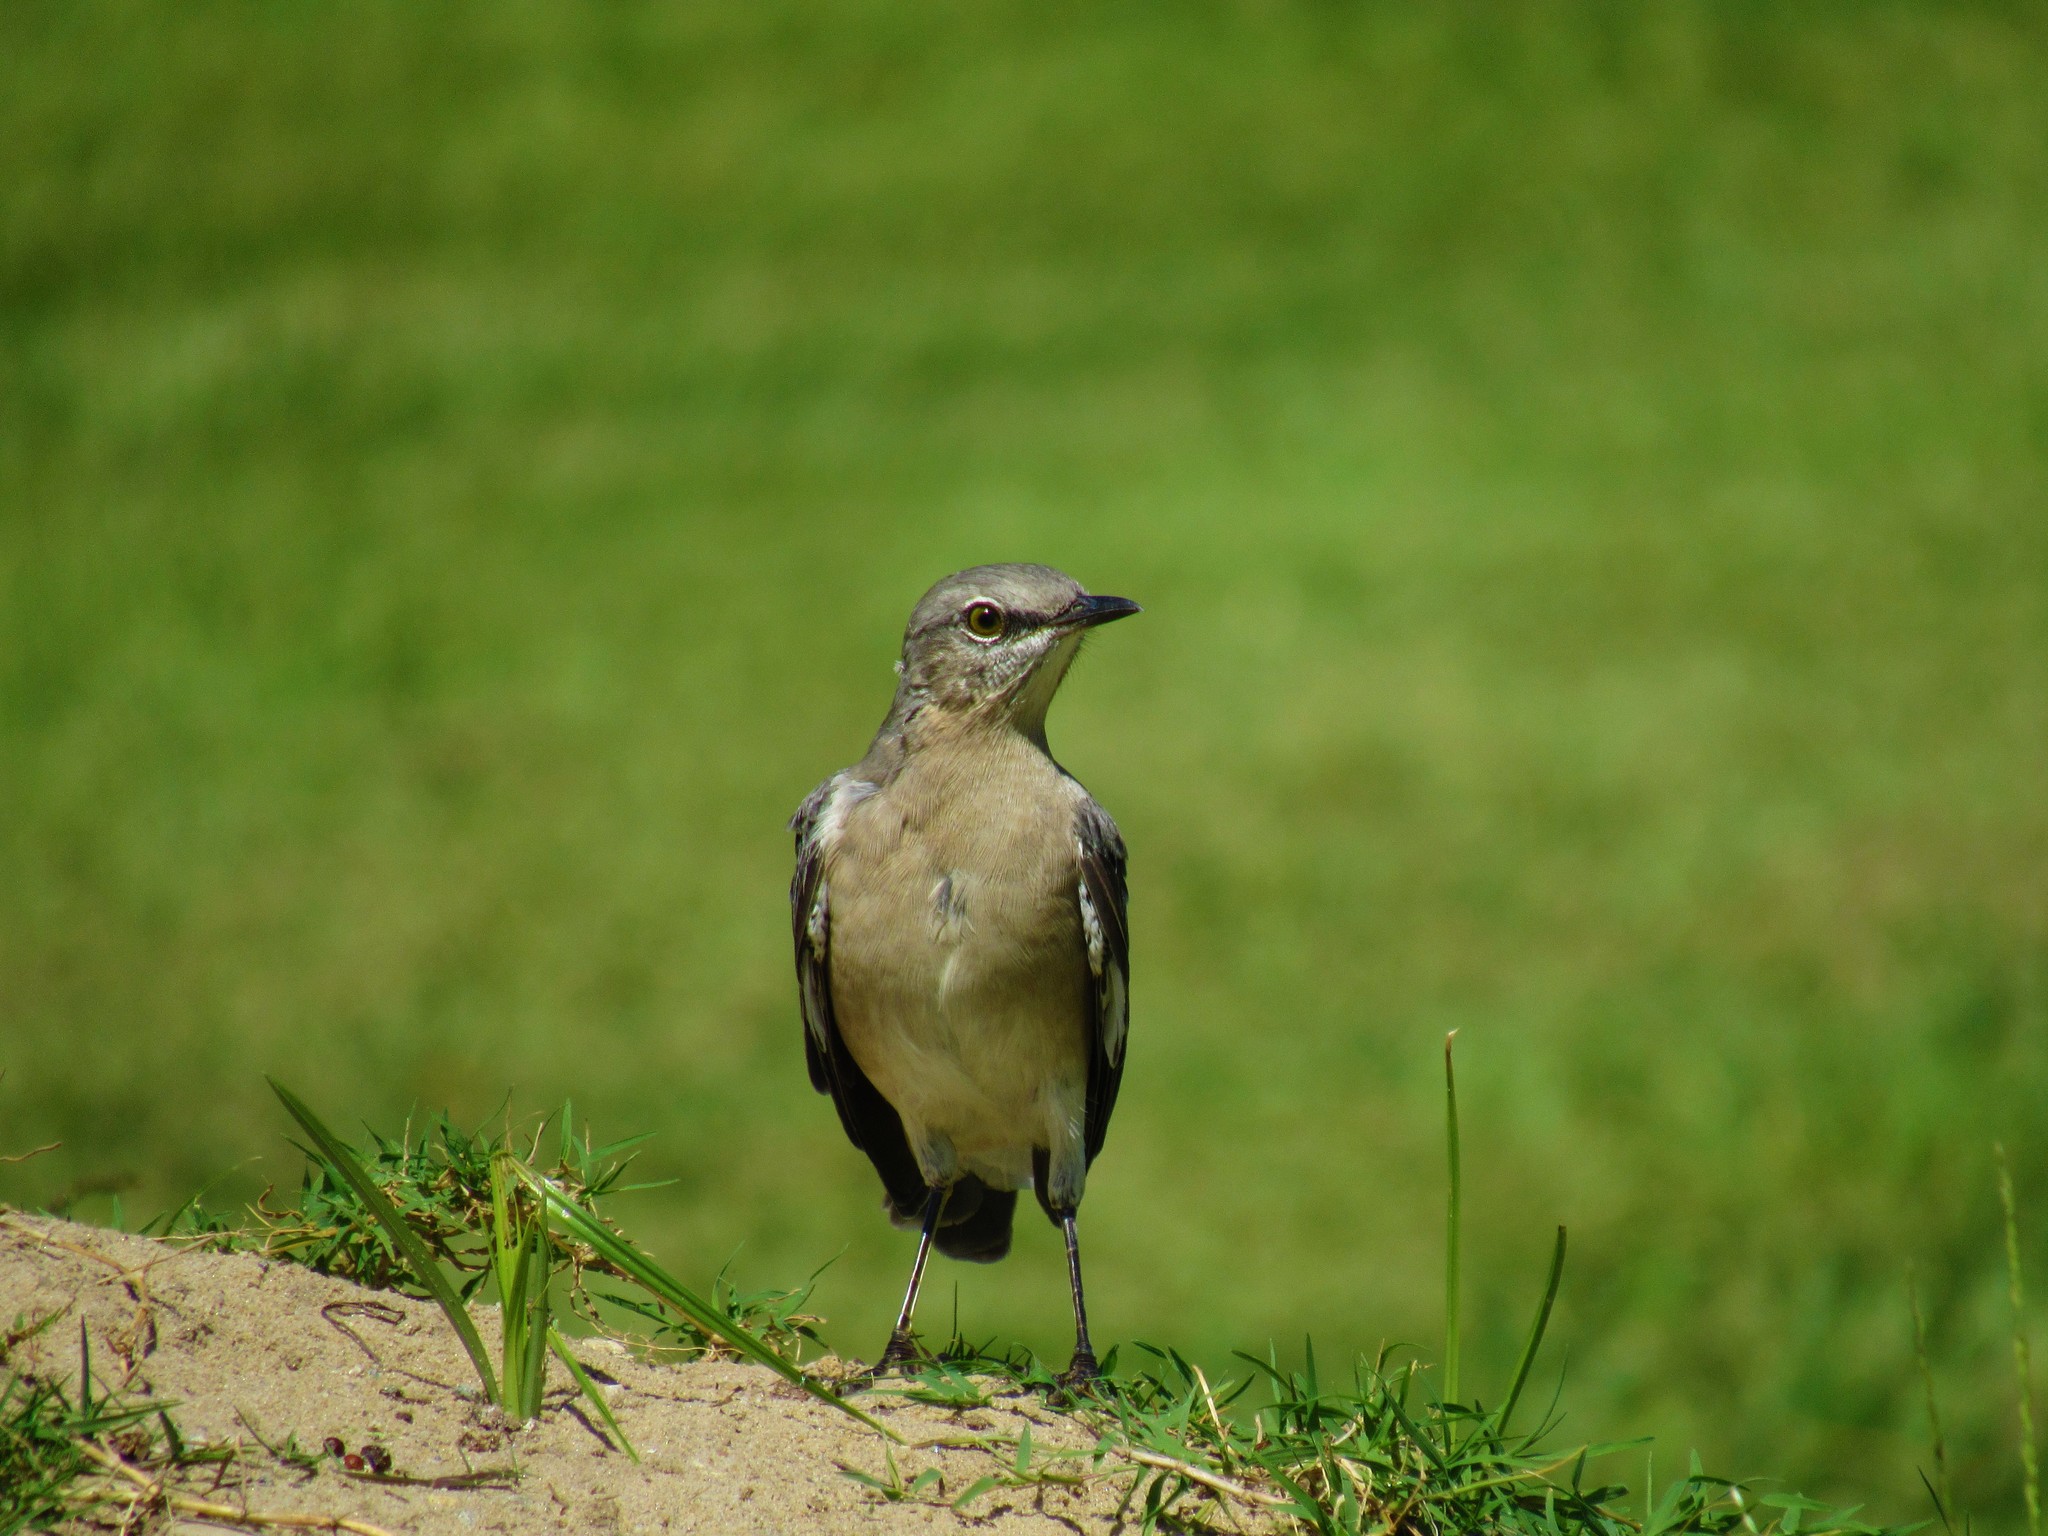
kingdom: Animalia
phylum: Chordata
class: Aves
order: Passeriformes
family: Mimidae
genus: Mimus
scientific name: Mimus polyglottos
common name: Northern mockingbird
